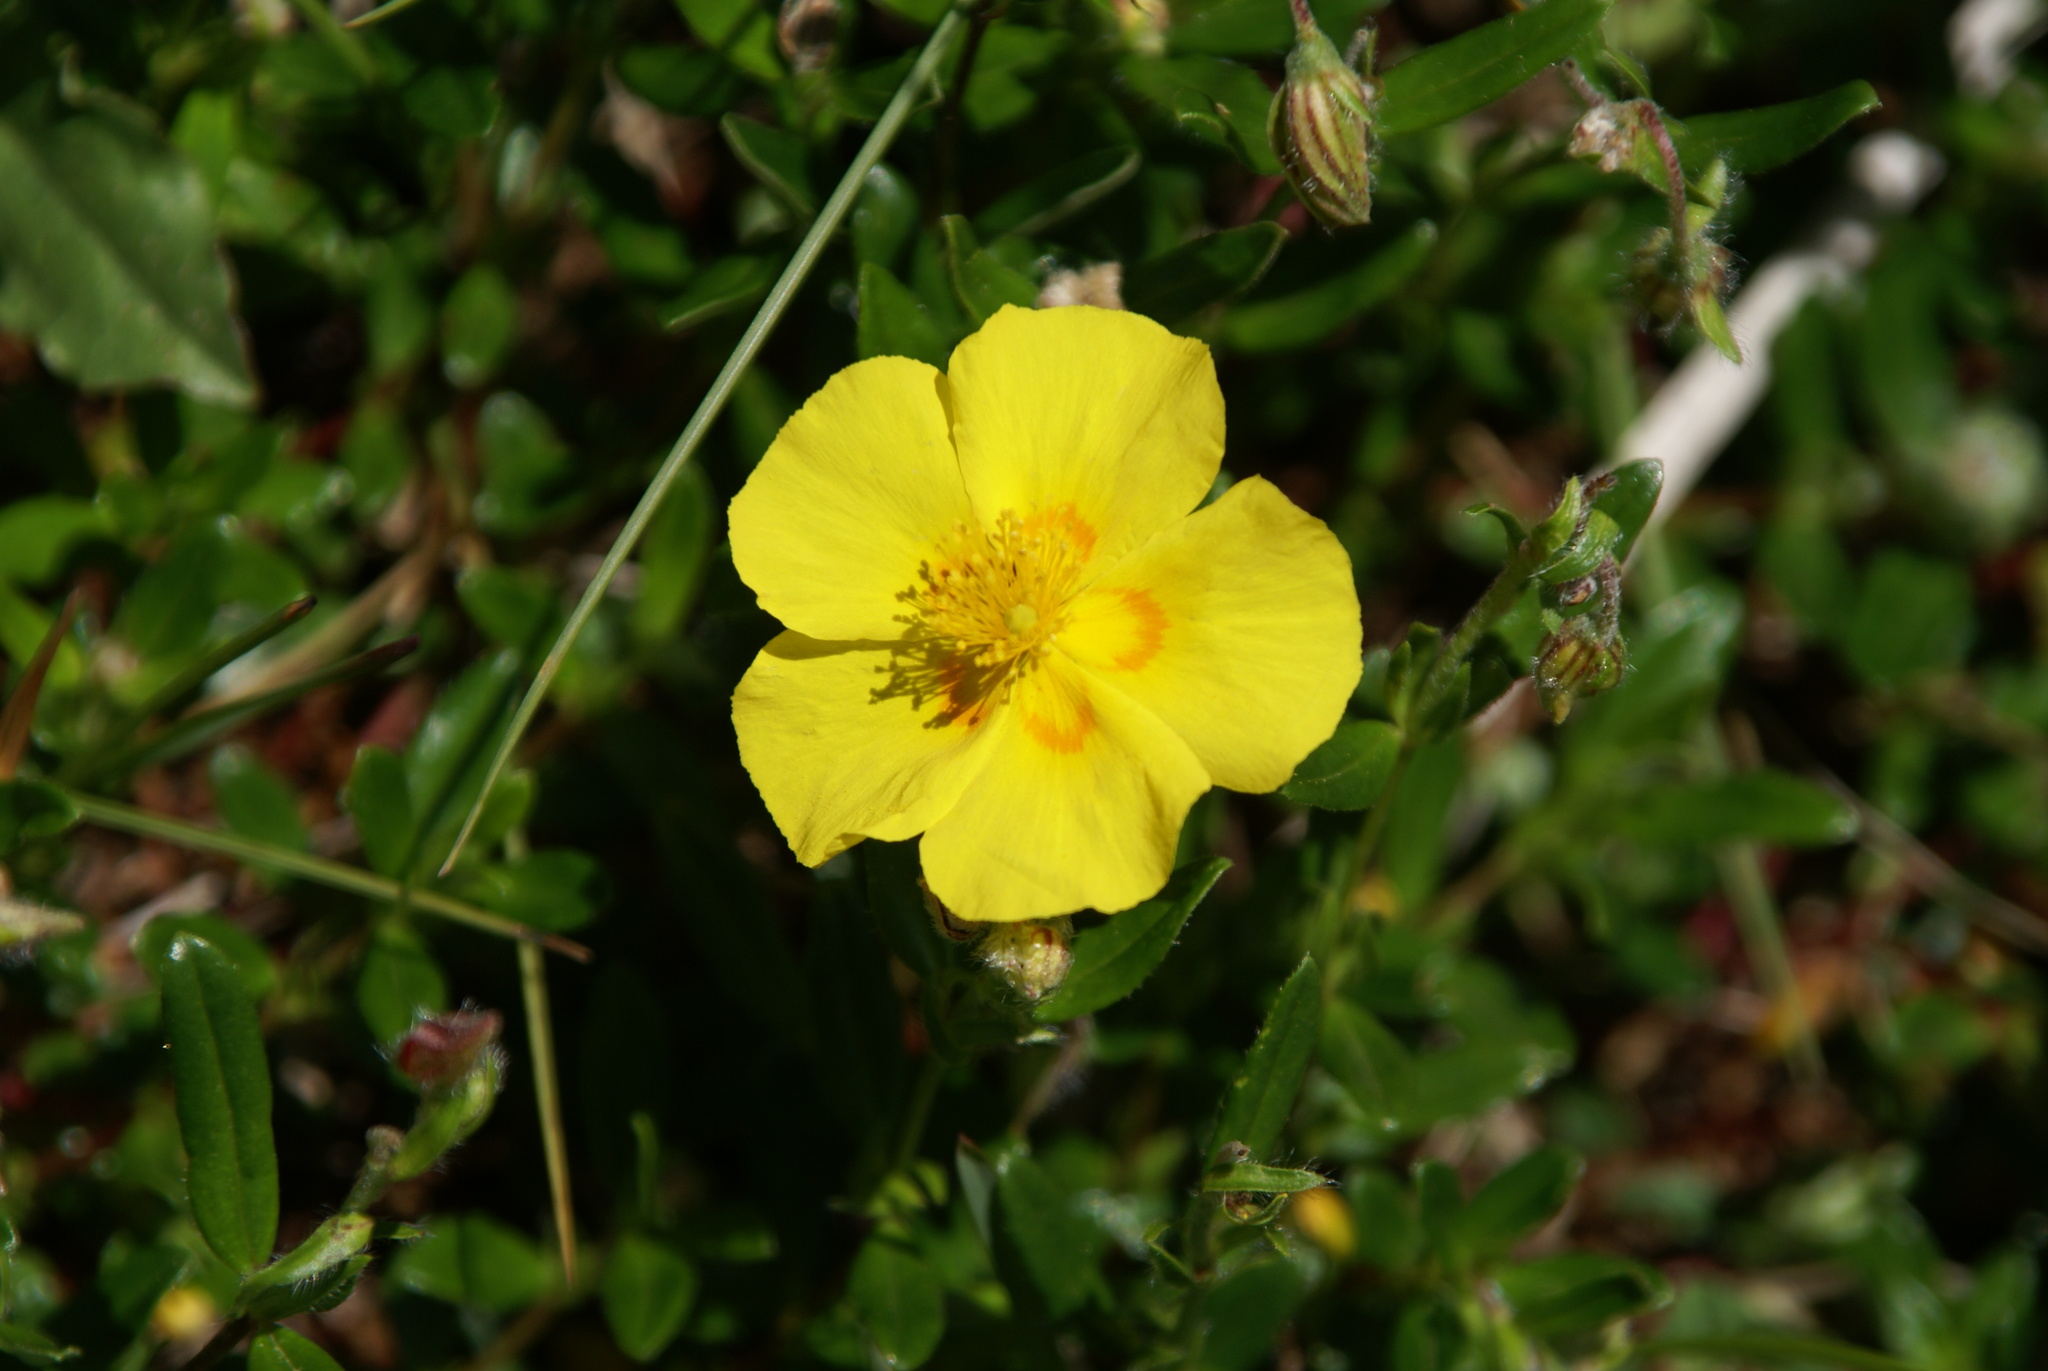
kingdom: Plantae
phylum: Tracheophyta
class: Magnoliopsida
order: Malvales
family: Cistaceae
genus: Helianthemum
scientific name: Helianthemum nummularium
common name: Common rock-rose
